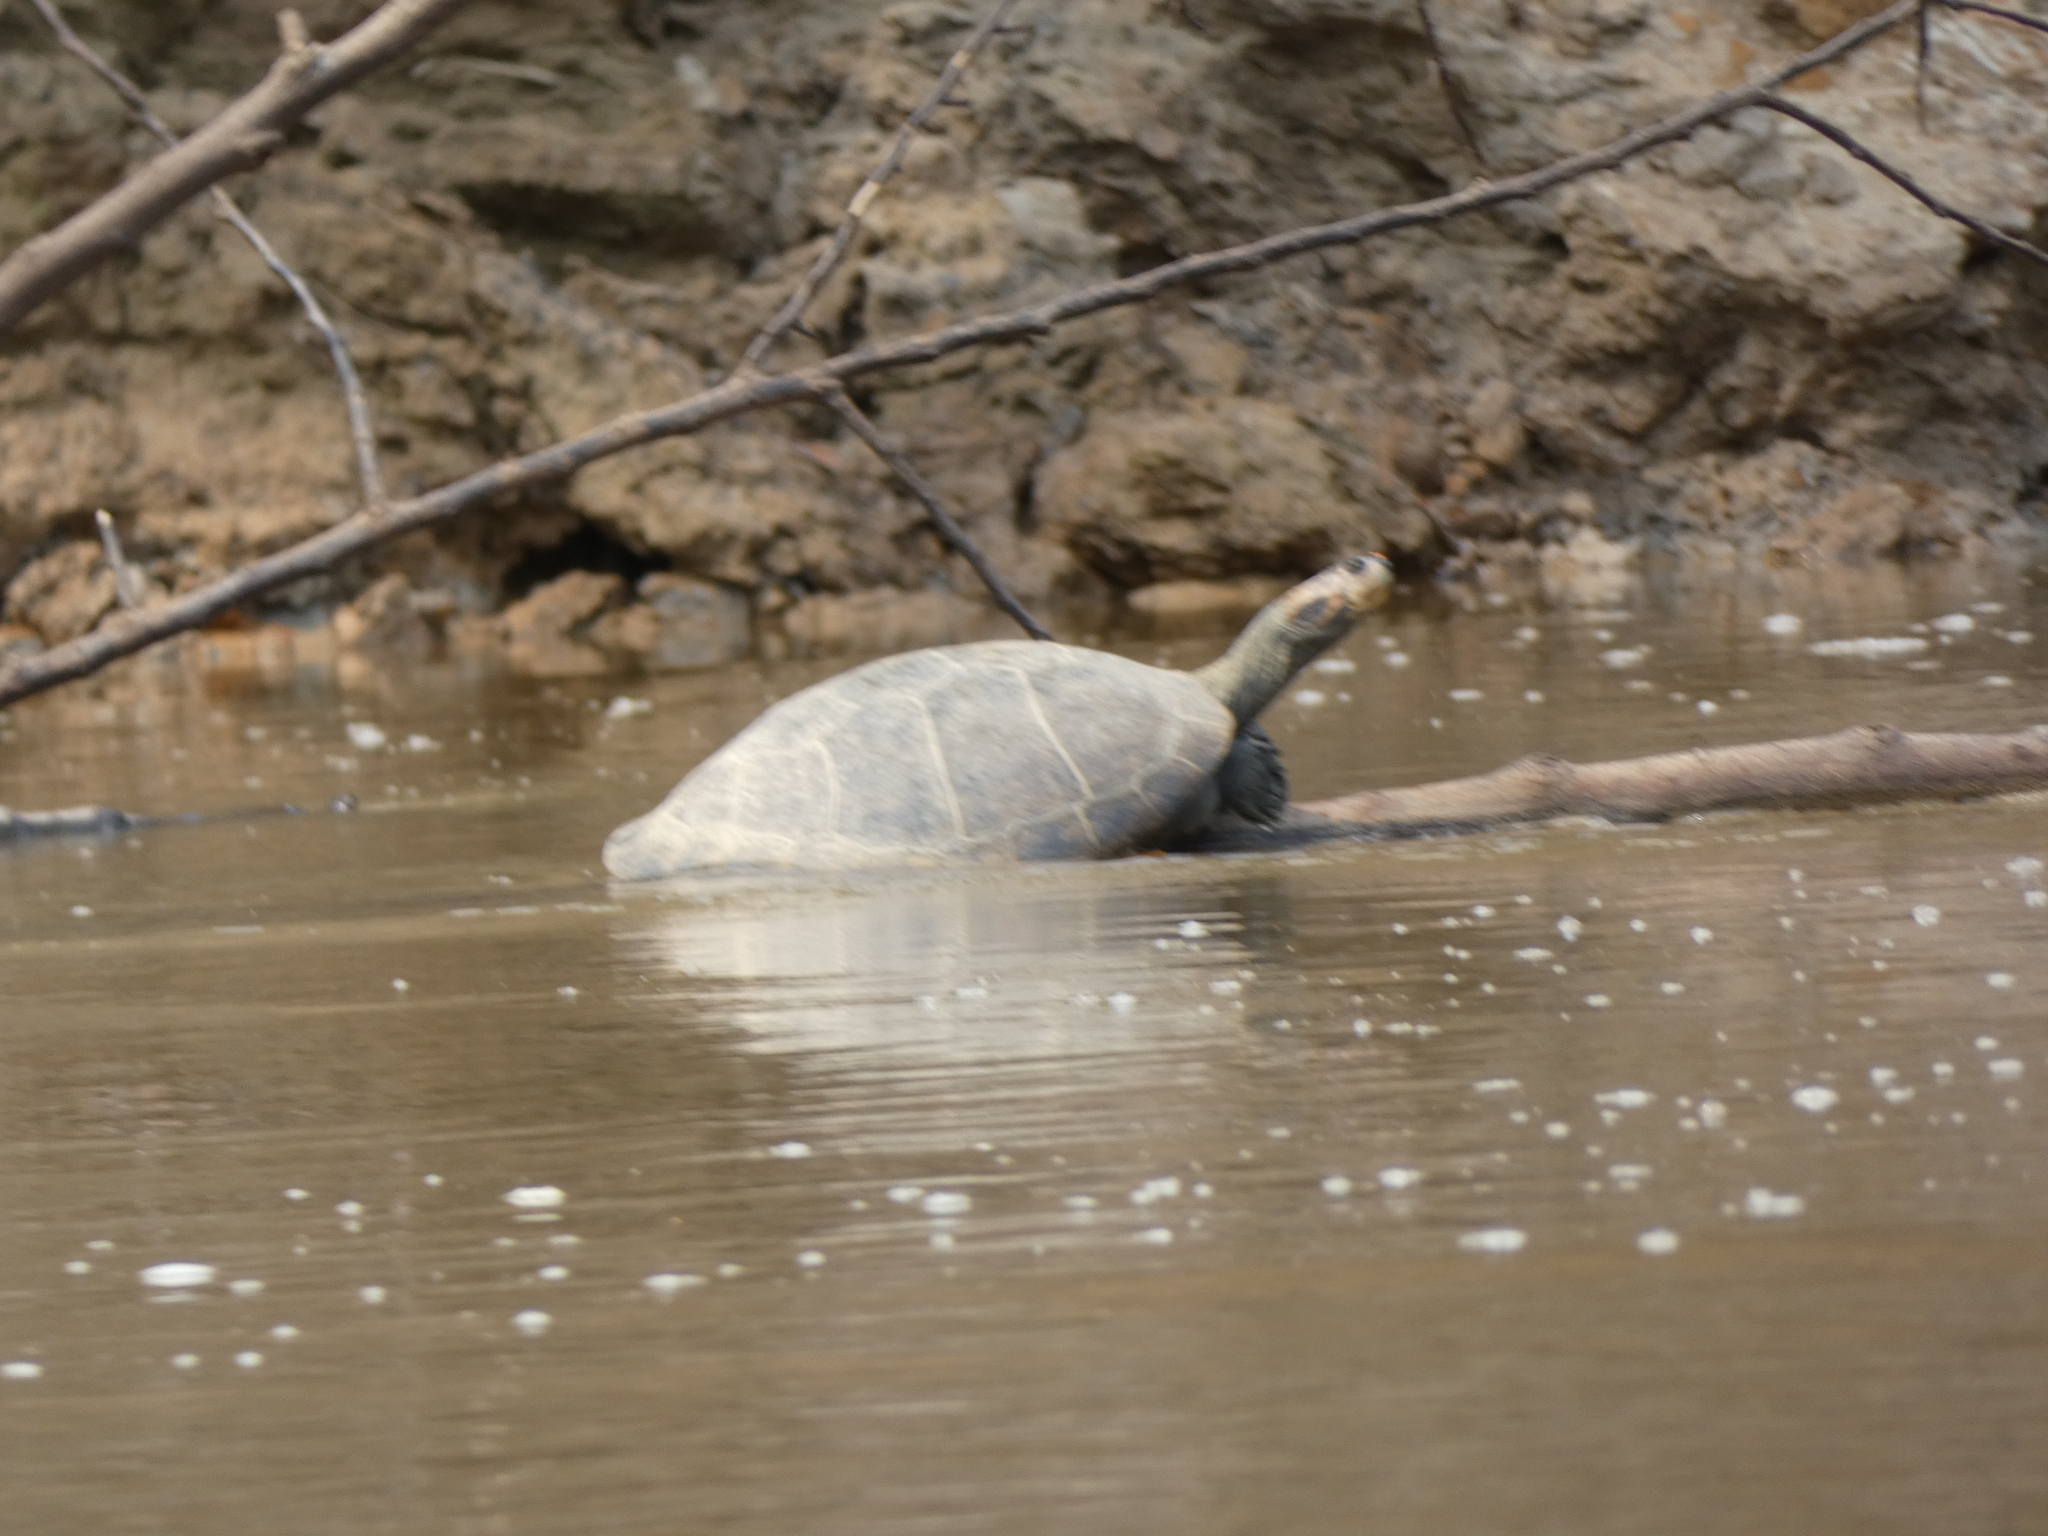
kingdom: Animalia
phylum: Chordata
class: Testudines
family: Podocnemididae
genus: Podocnemis
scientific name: Podocnemis unifilis
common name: Yellow-spotted amazon river turtle
